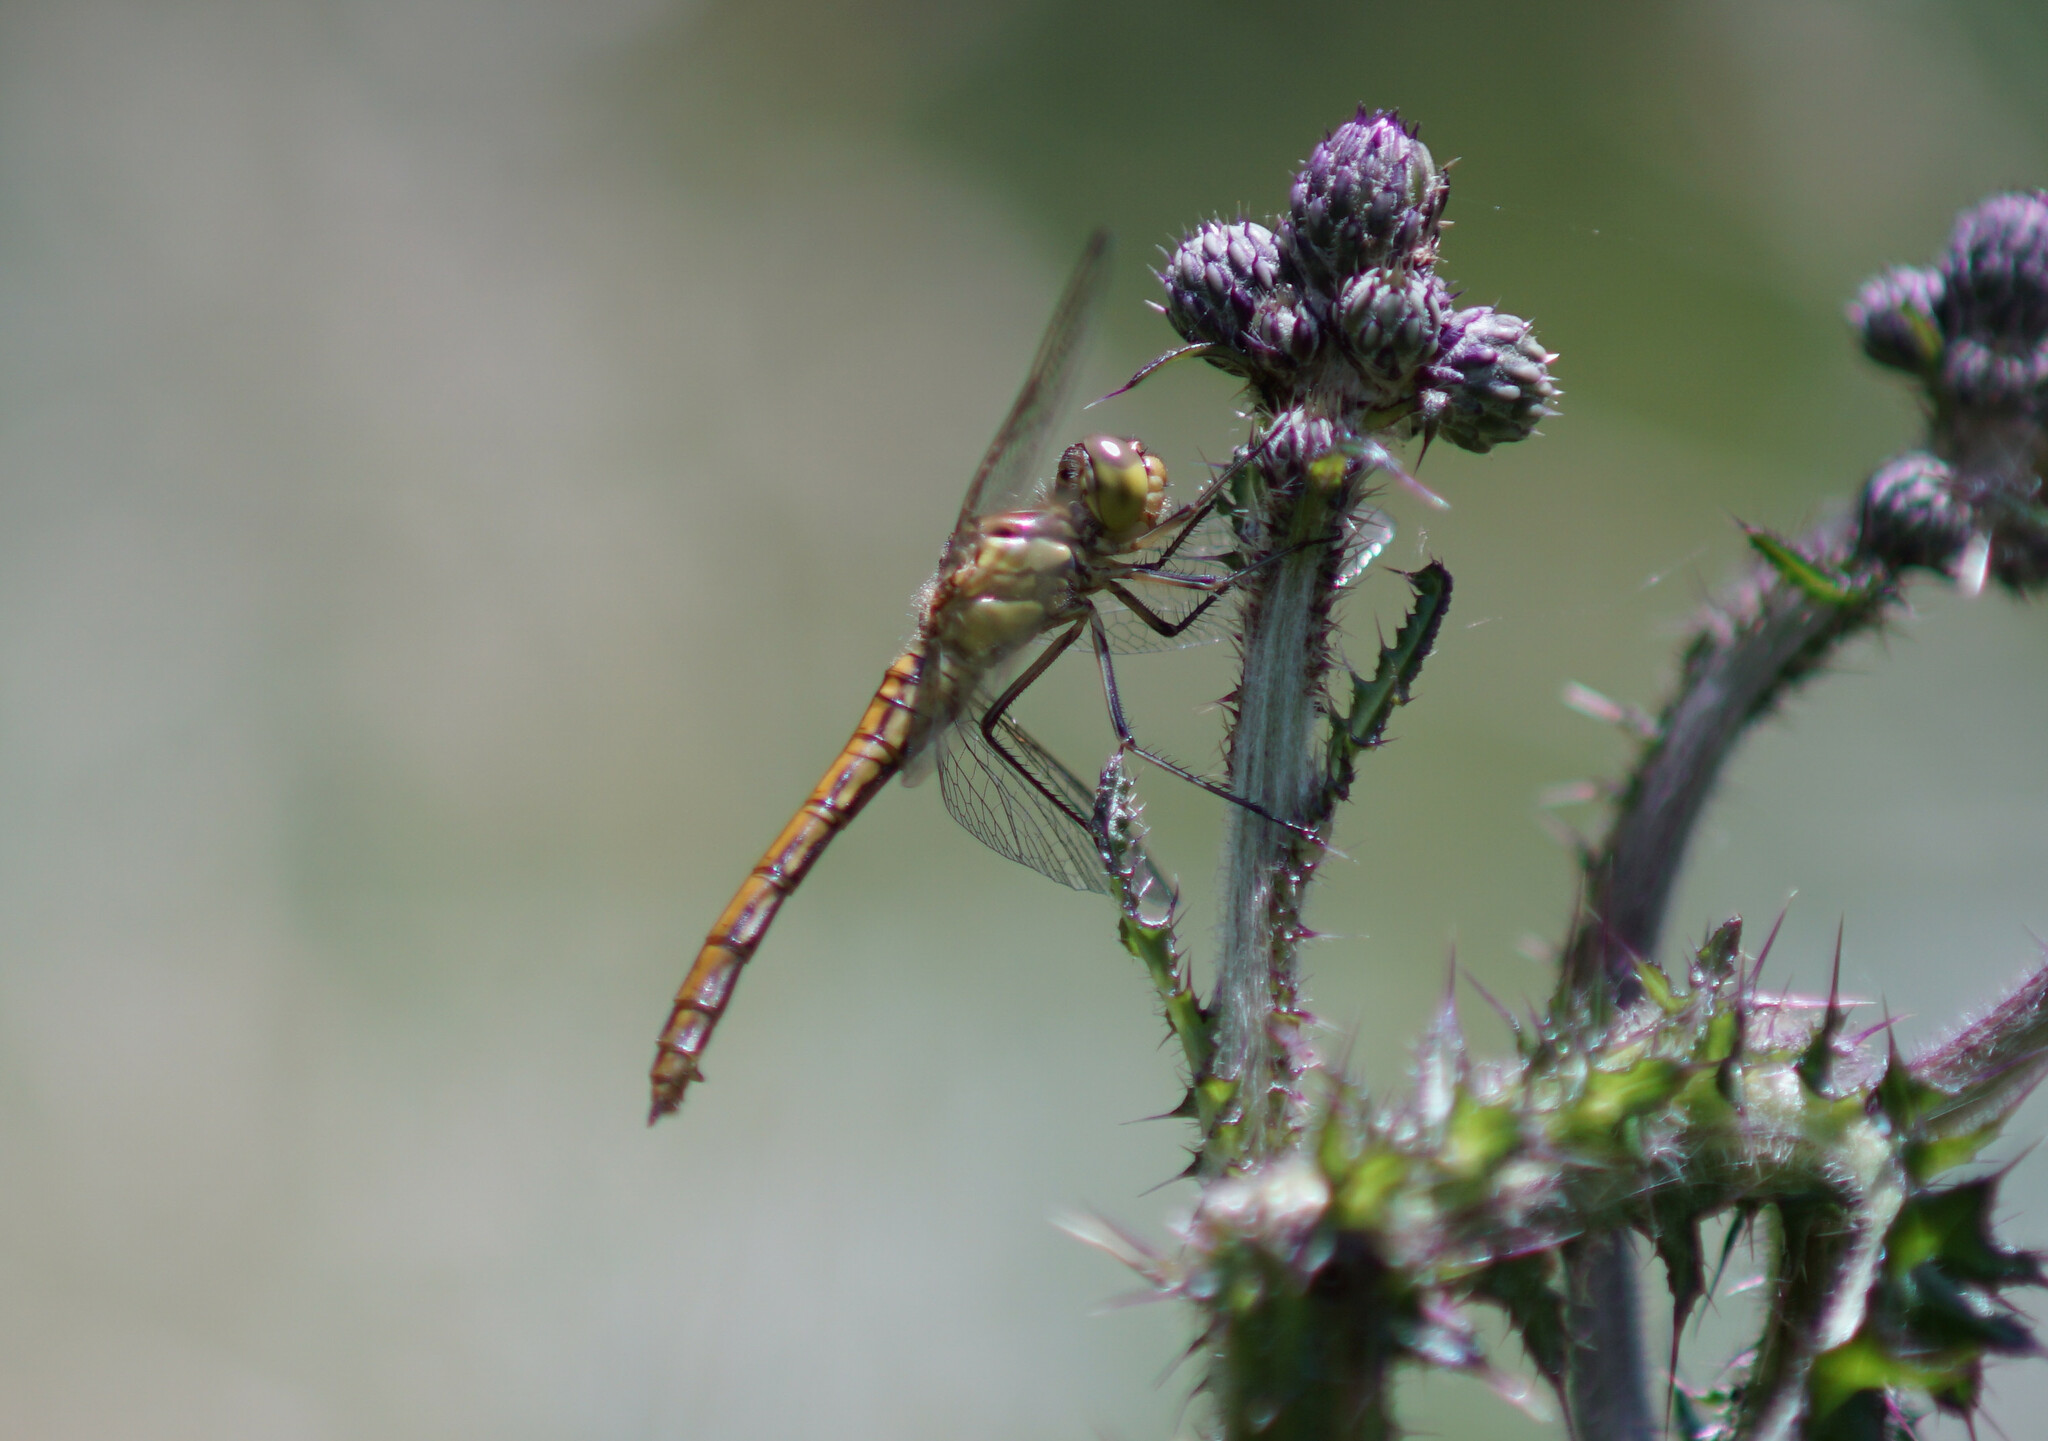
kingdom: Animalia
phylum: Arthropoda
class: Insecta
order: Odonata
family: Libellulidae
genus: Sympetrum
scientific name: Sympetrum vulgatum
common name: Vagrant darter
